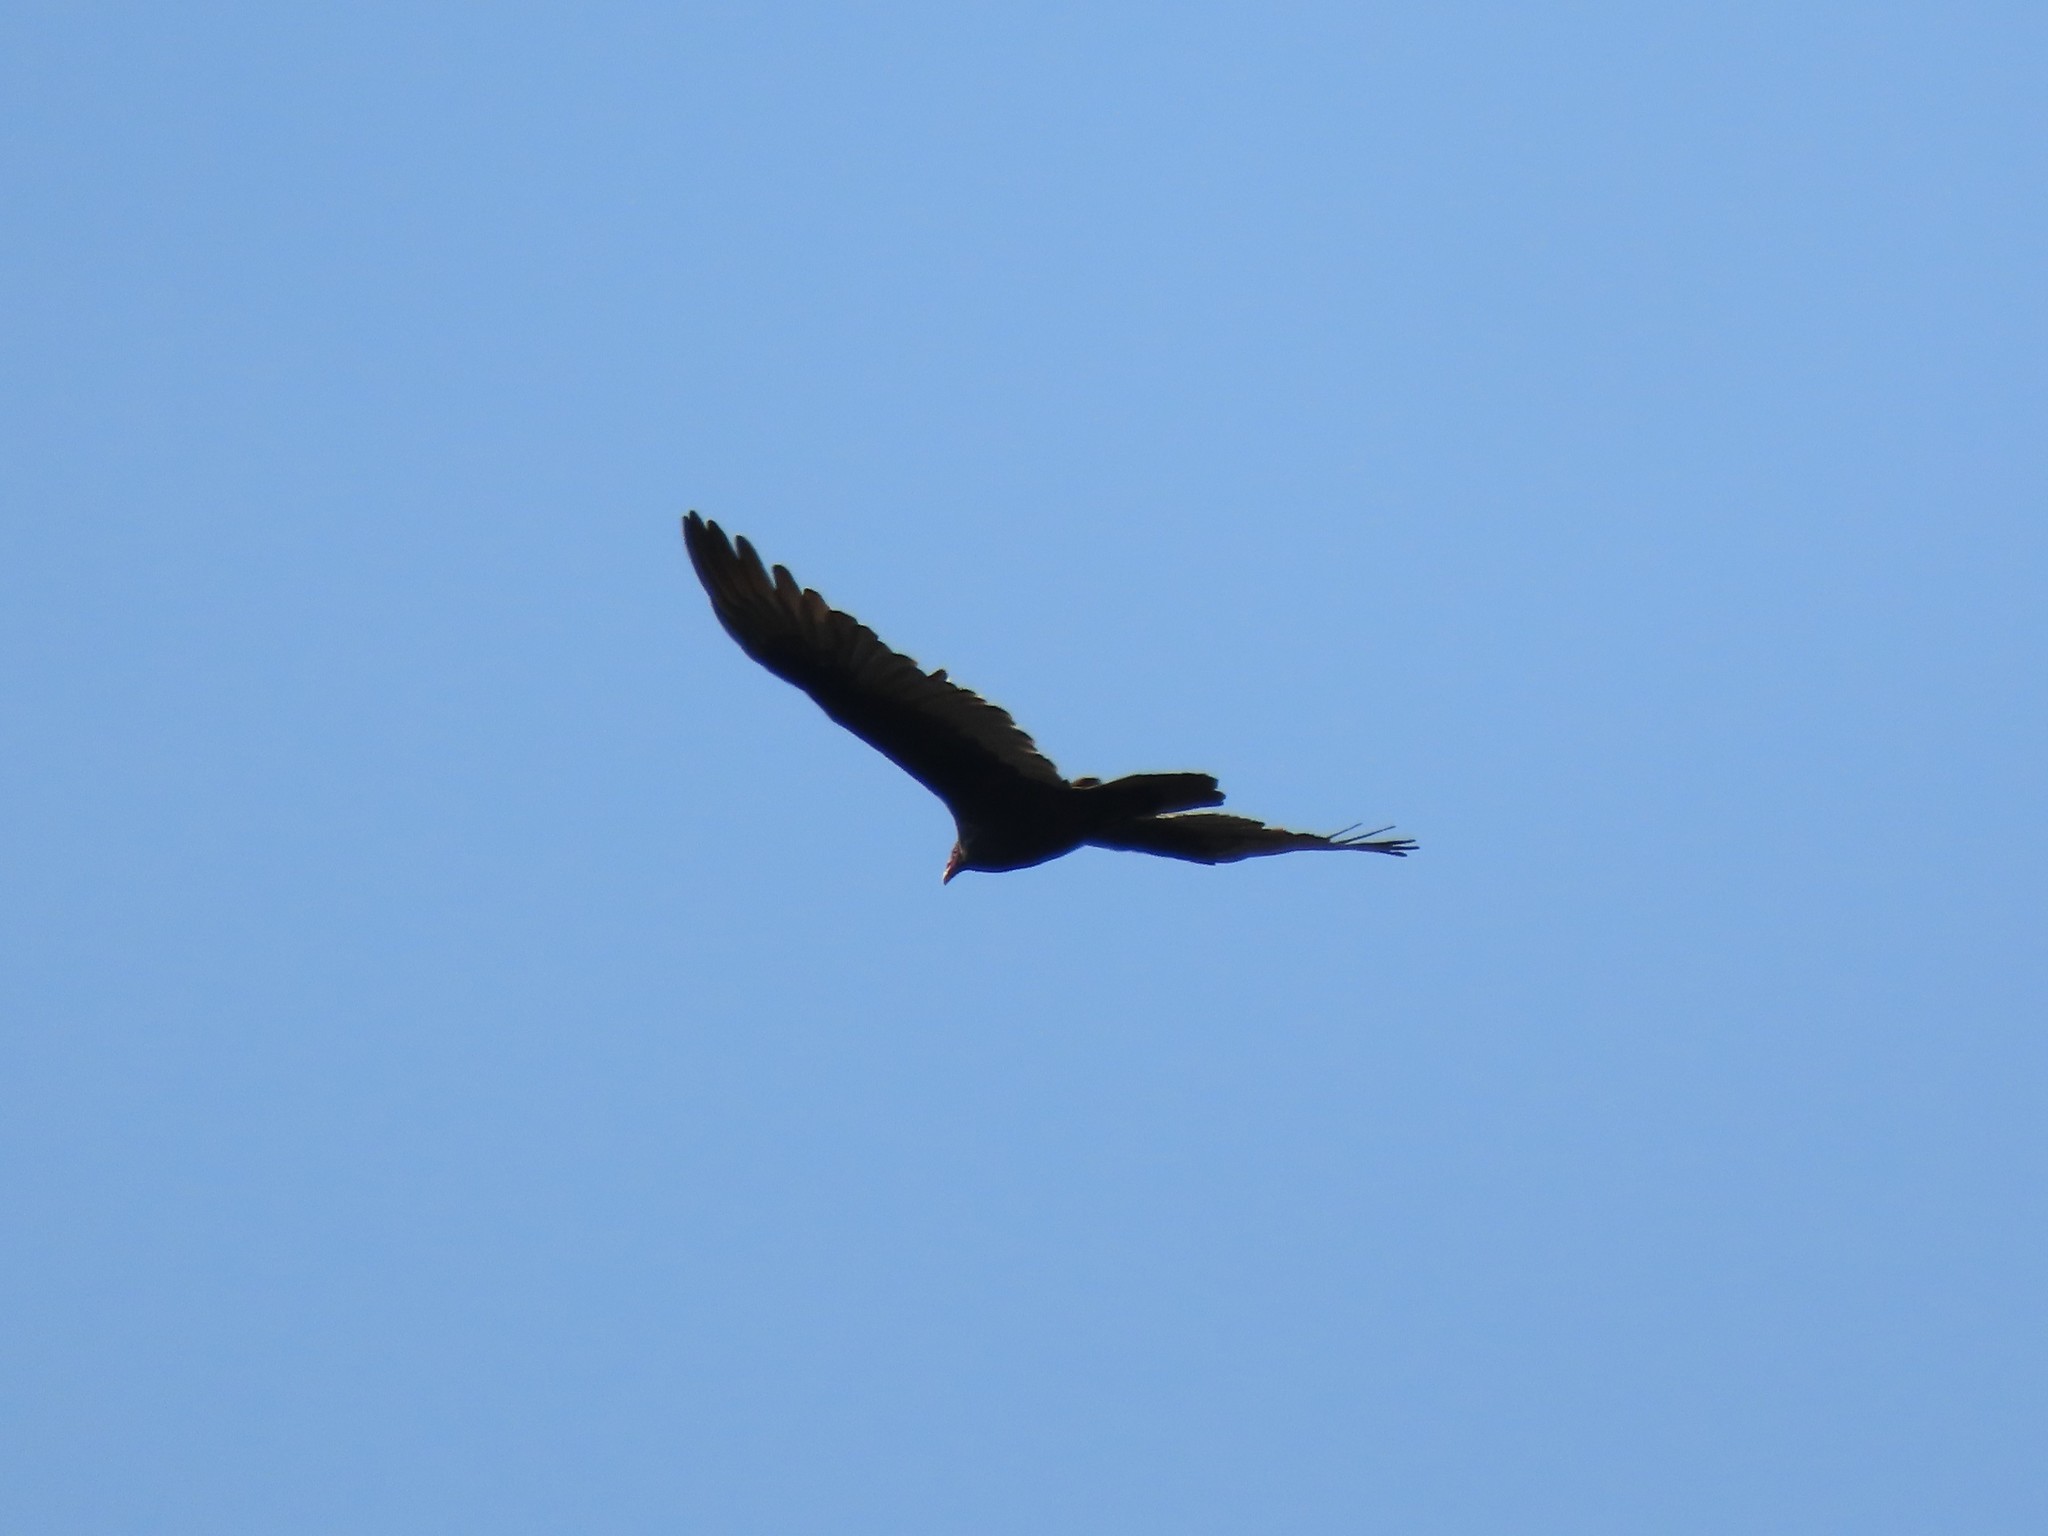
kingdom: Animalia
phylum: Chordata
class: Aves
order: Accipitriformes
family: Cathartidae
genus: Cathartes
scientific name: Cathartes aura
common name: Turkey vulture
